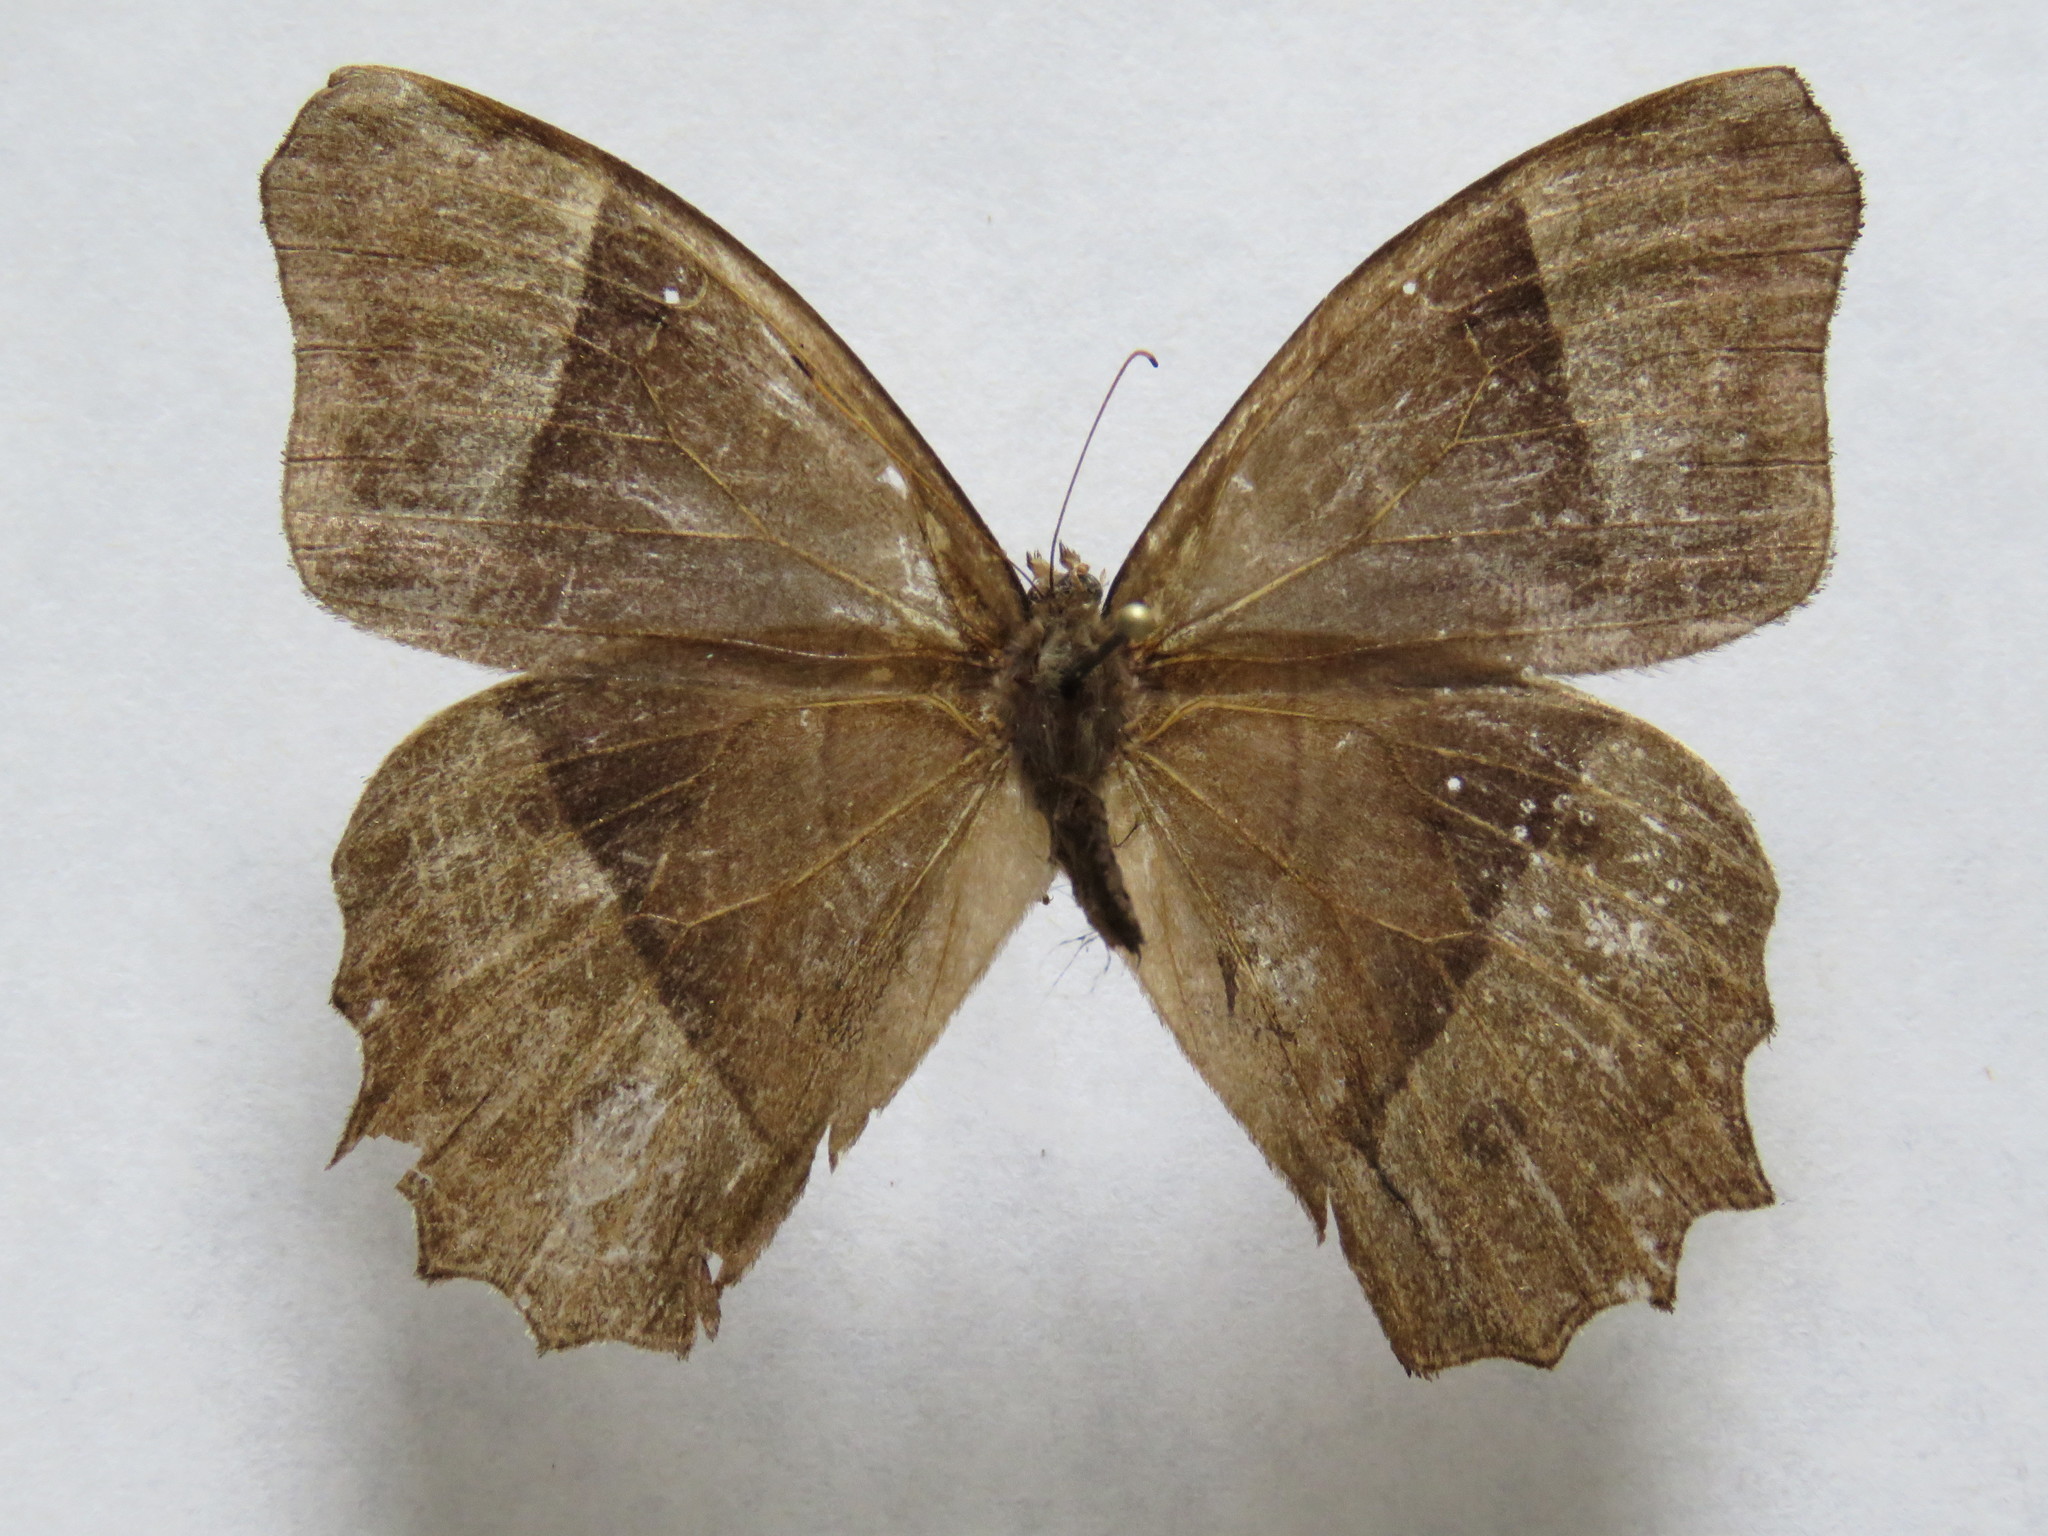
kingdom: Animalia
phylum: Arthropoda
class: Insecta
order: Lepidoptera
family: Nymphalidae
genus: Taygetis
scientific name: Taygetis andromeda
